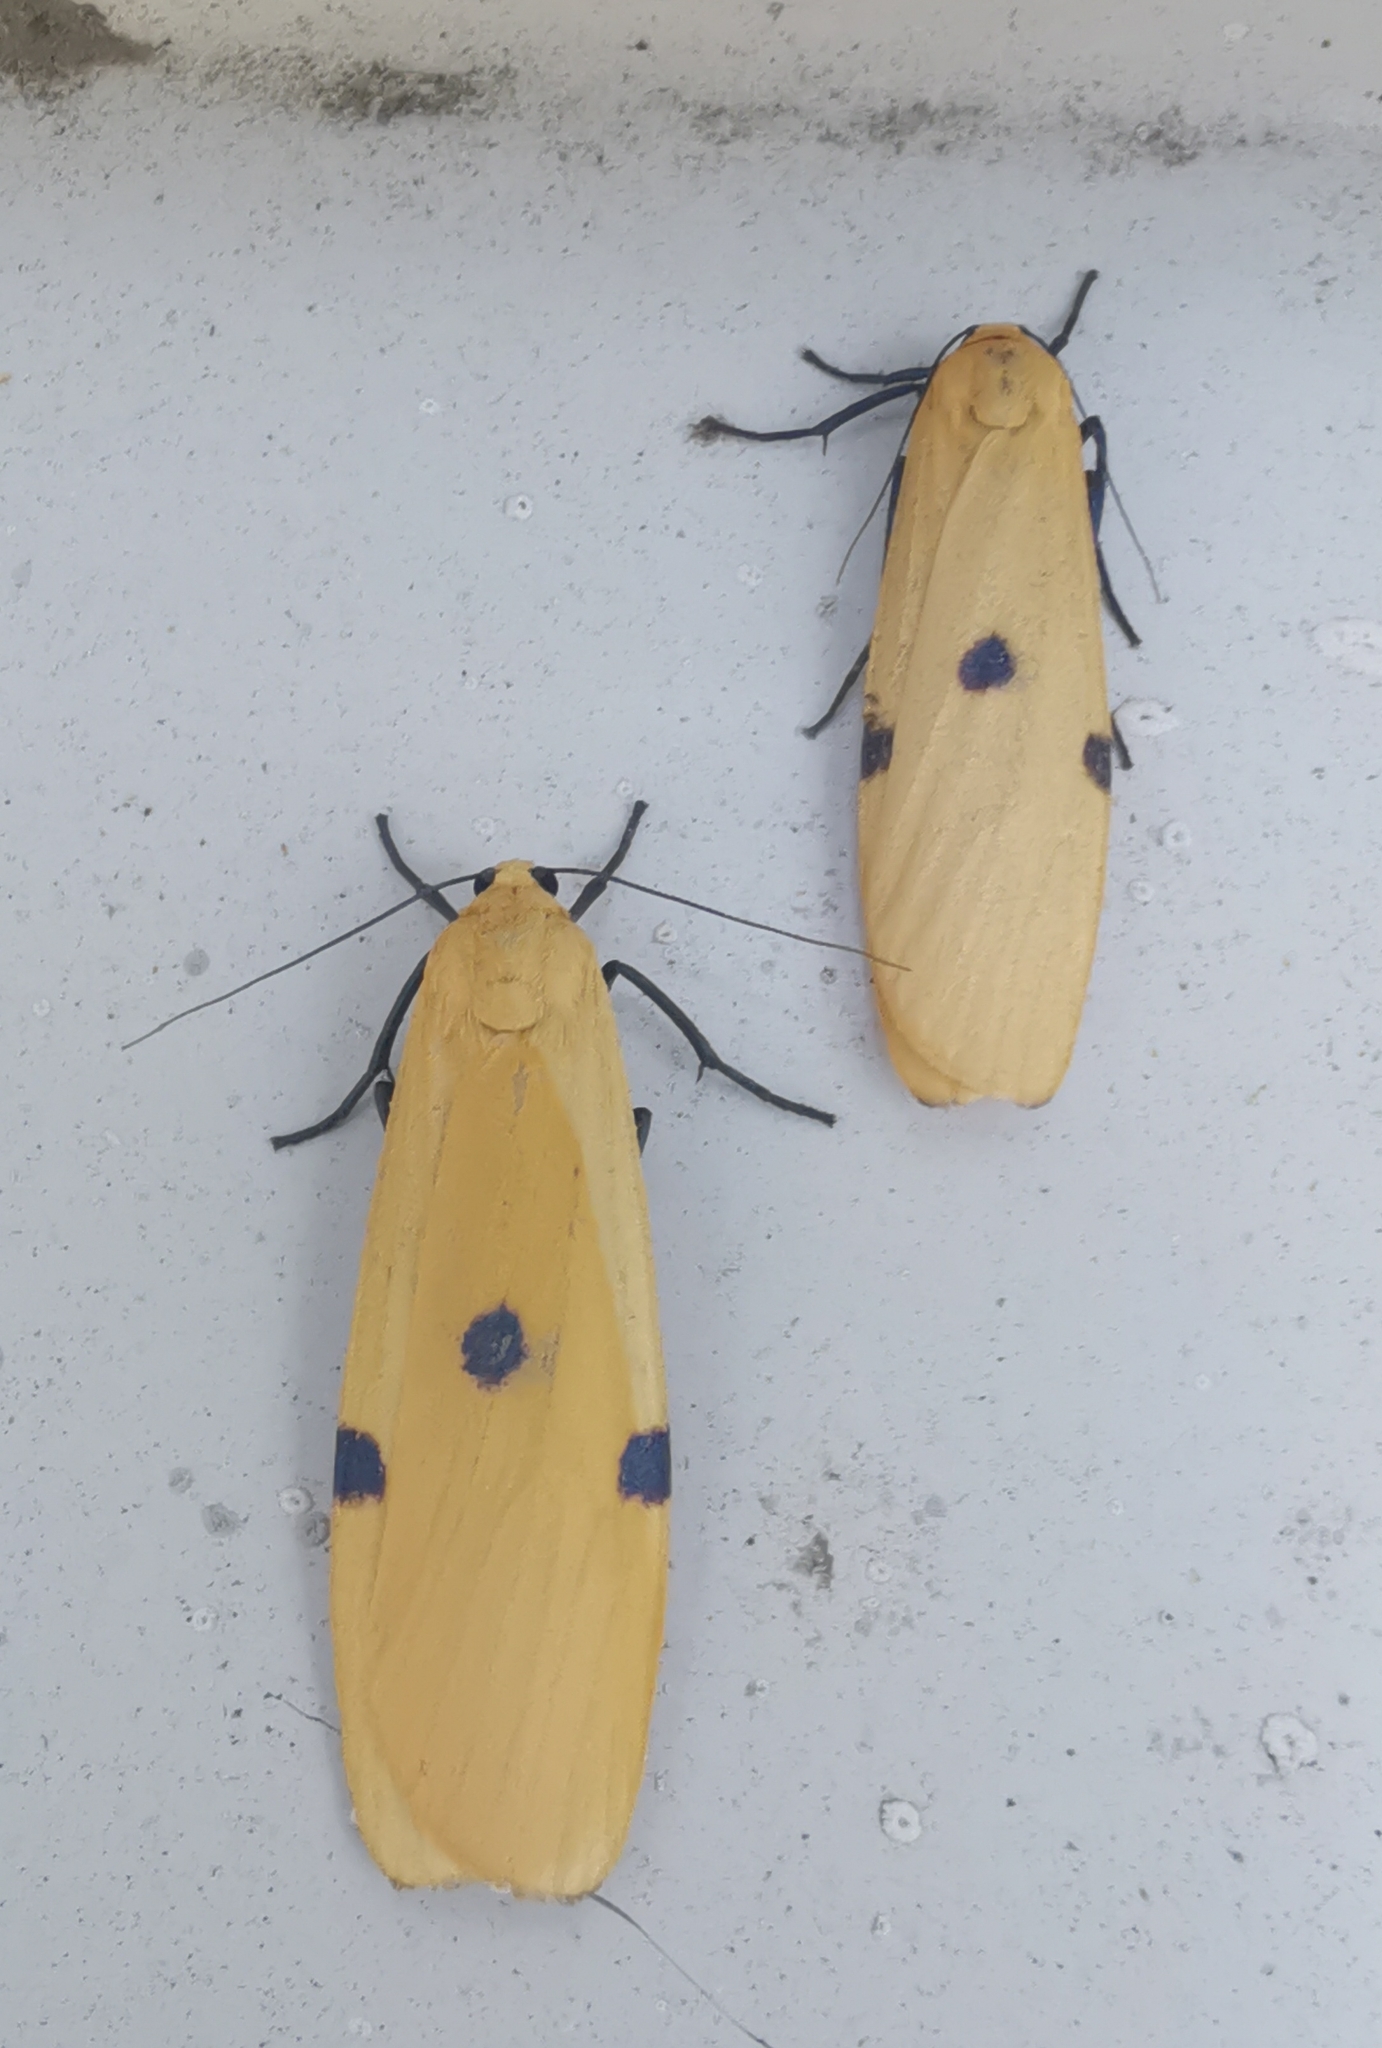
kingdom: Animalia
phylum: Arthropoda
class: Insecta
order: Lepidoptera
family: Erebidae
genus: Lithosia
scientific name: Lithosia quadra
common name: Four-spotted footman
